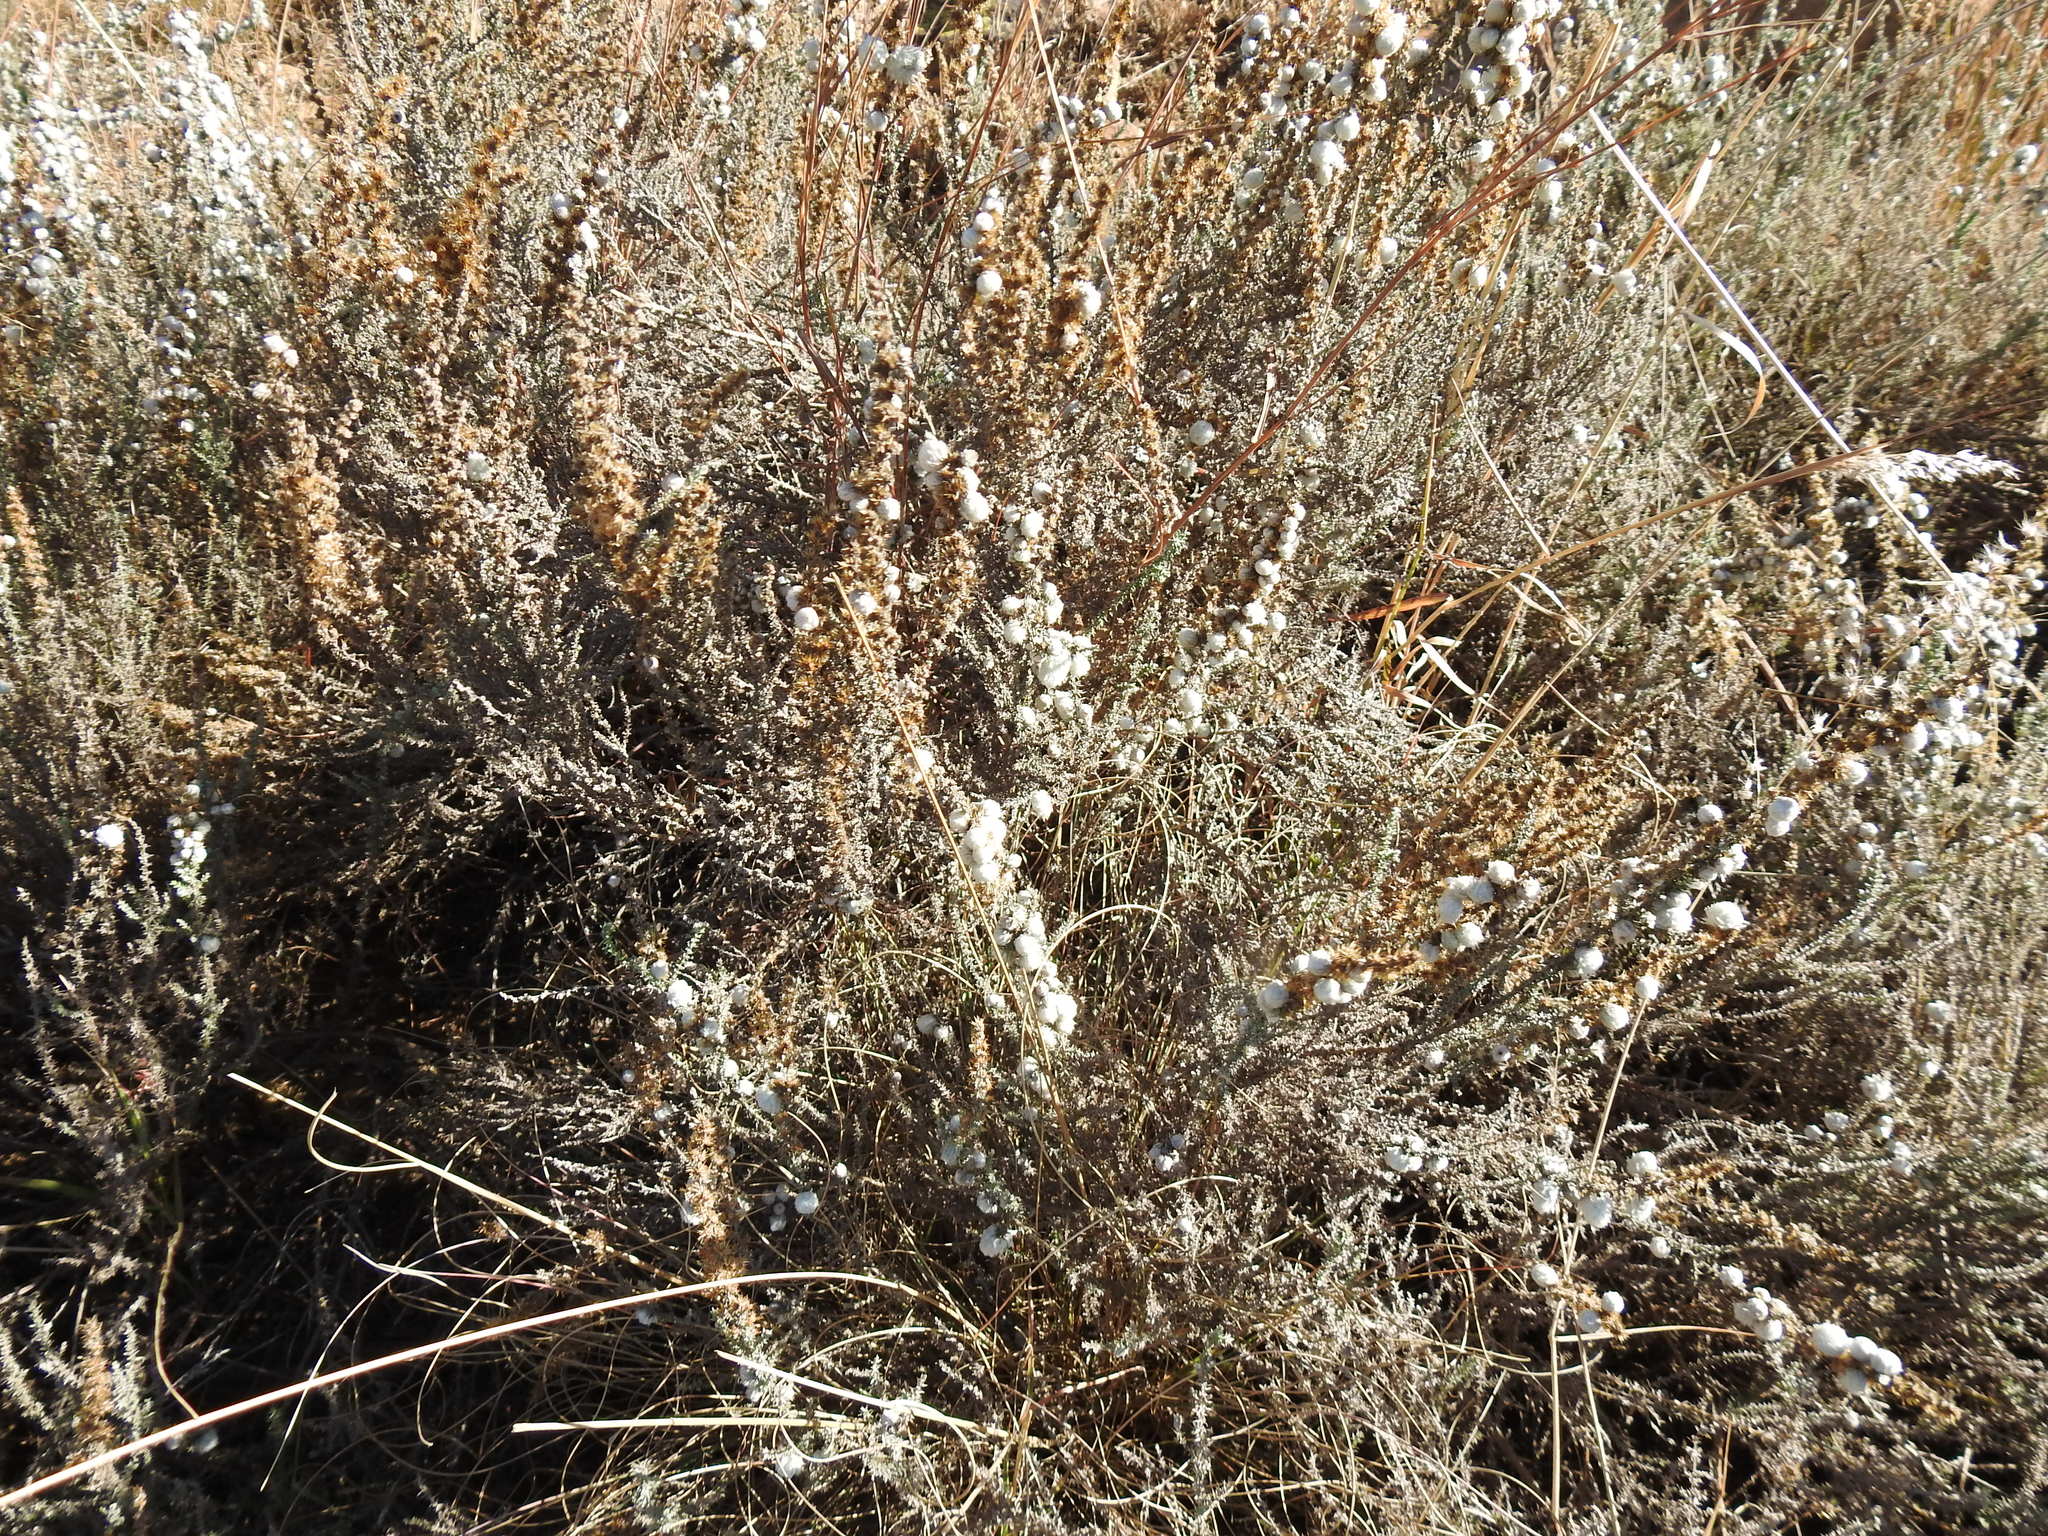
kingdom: Plantae
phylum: Tracheophyta
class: Magnoliopsida
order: Asterales
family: Asteraceae
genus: Seriphium
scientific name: Seriphium plumosum
